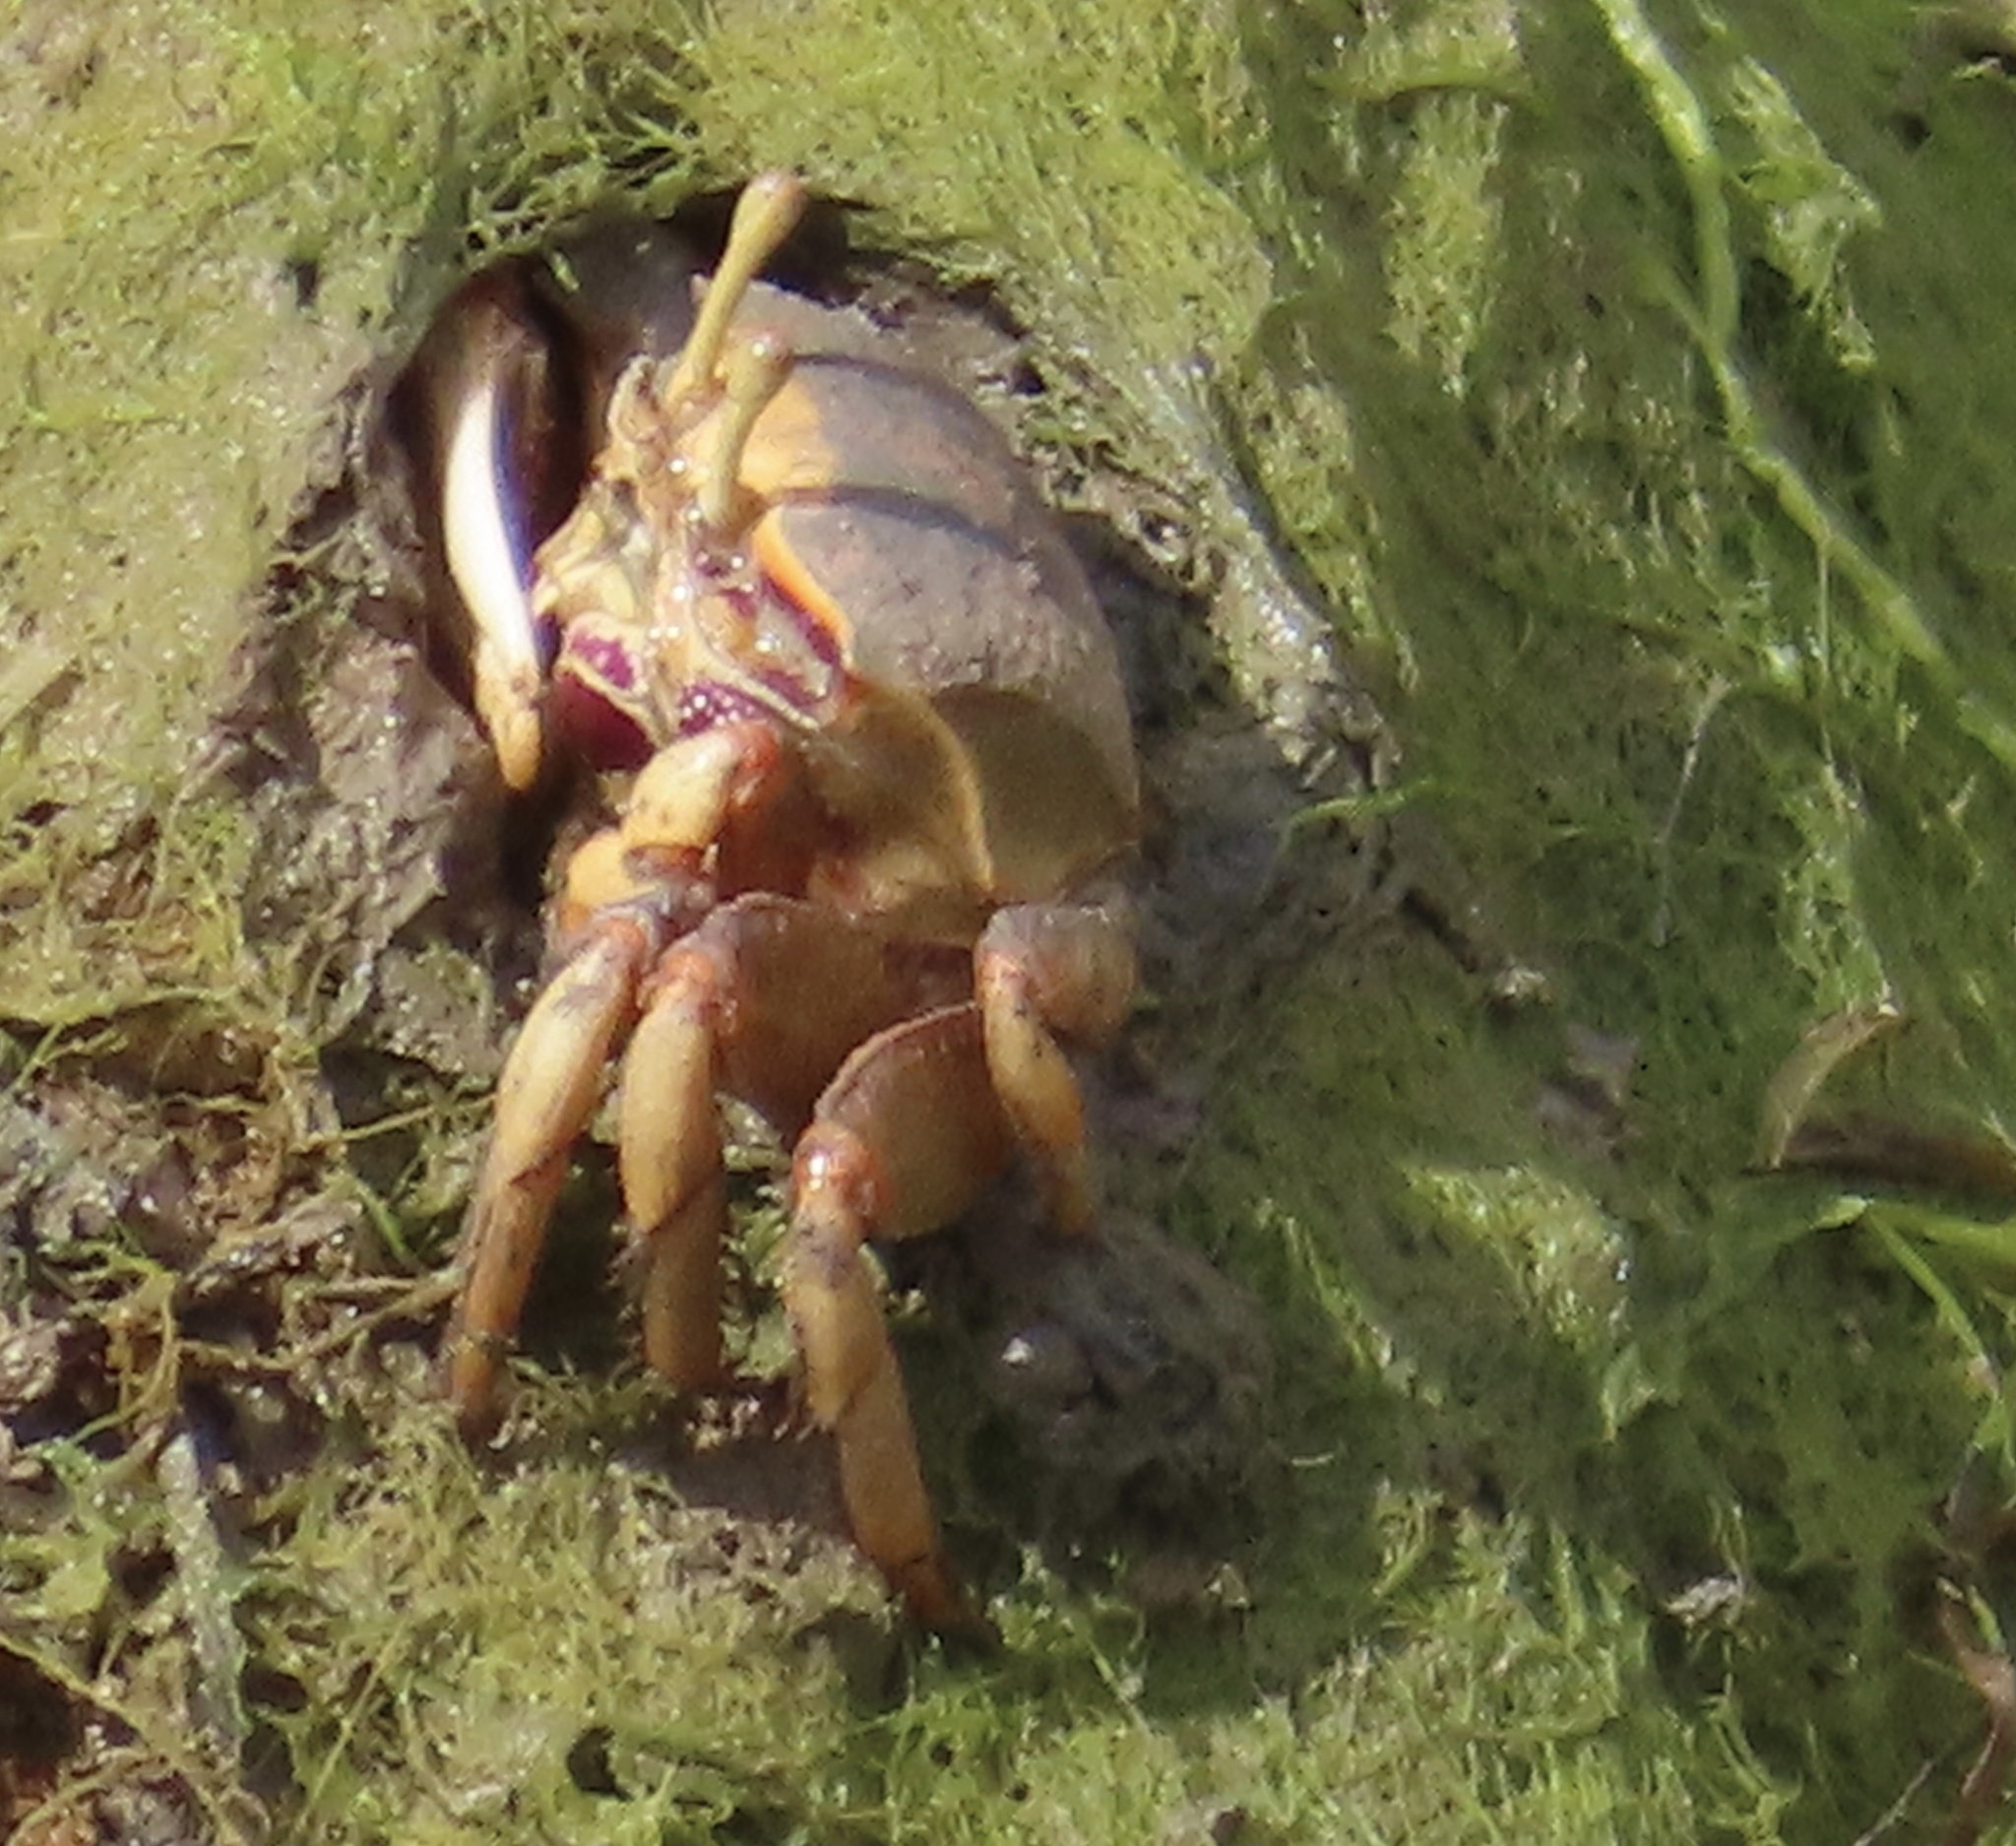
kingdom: Animalia
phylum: Arthropoda
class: Malacostraca
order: Decapoda
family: Ocypodidae
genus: Afruca
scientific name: Afruca tangeri
